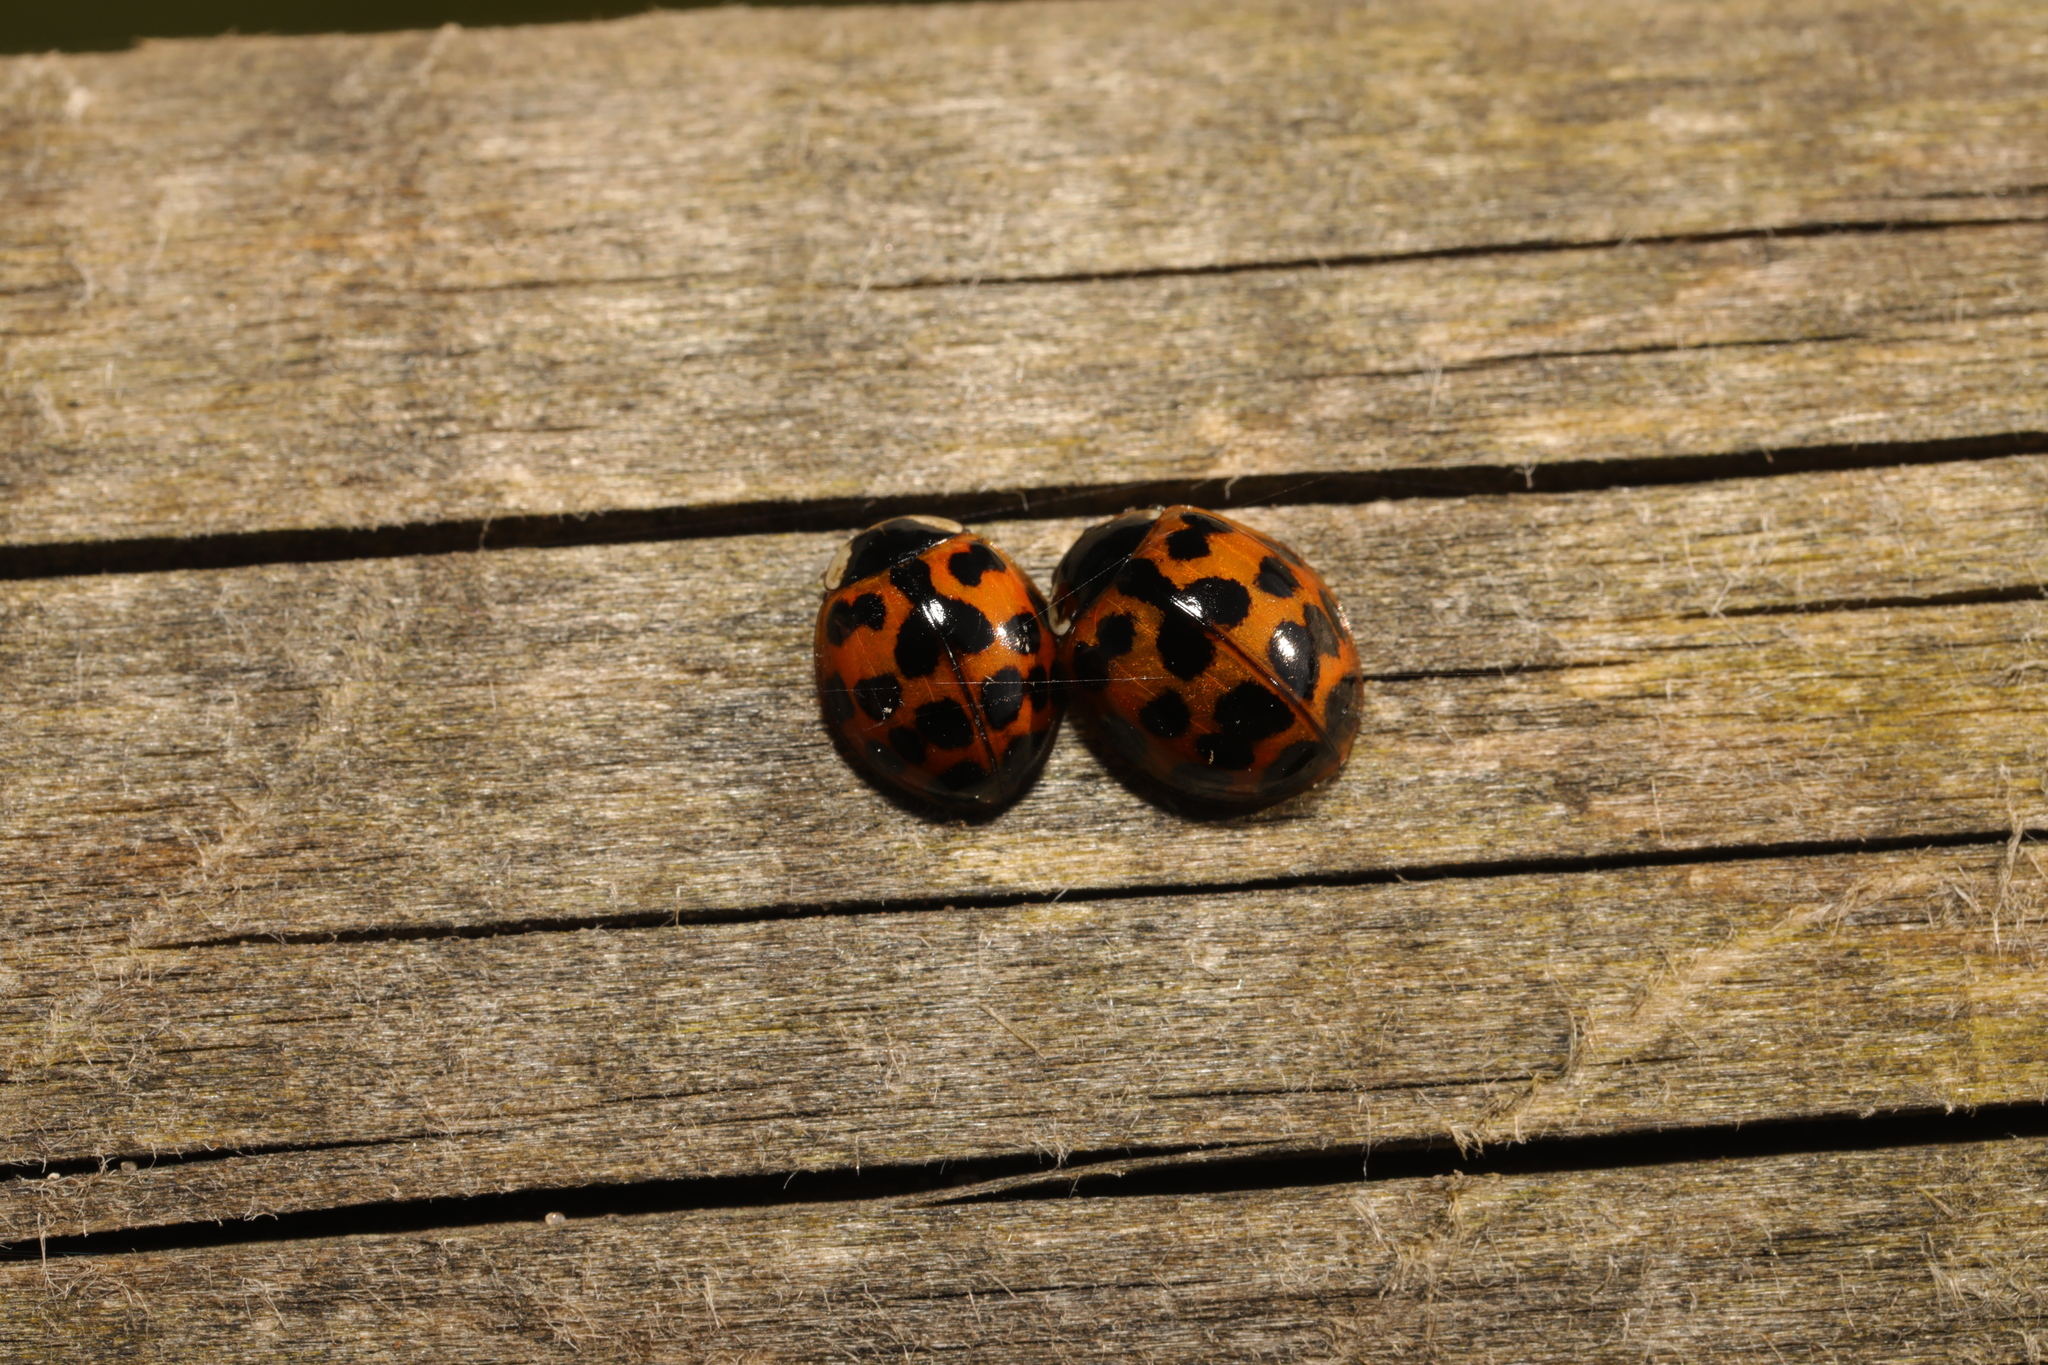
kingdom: Animalia
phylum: Arthropoda
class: Insecta
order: Coleoptera
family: Coccinellidae
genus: Harmonia
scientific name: Harmonia axyridis
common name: Harlequin ladybird
